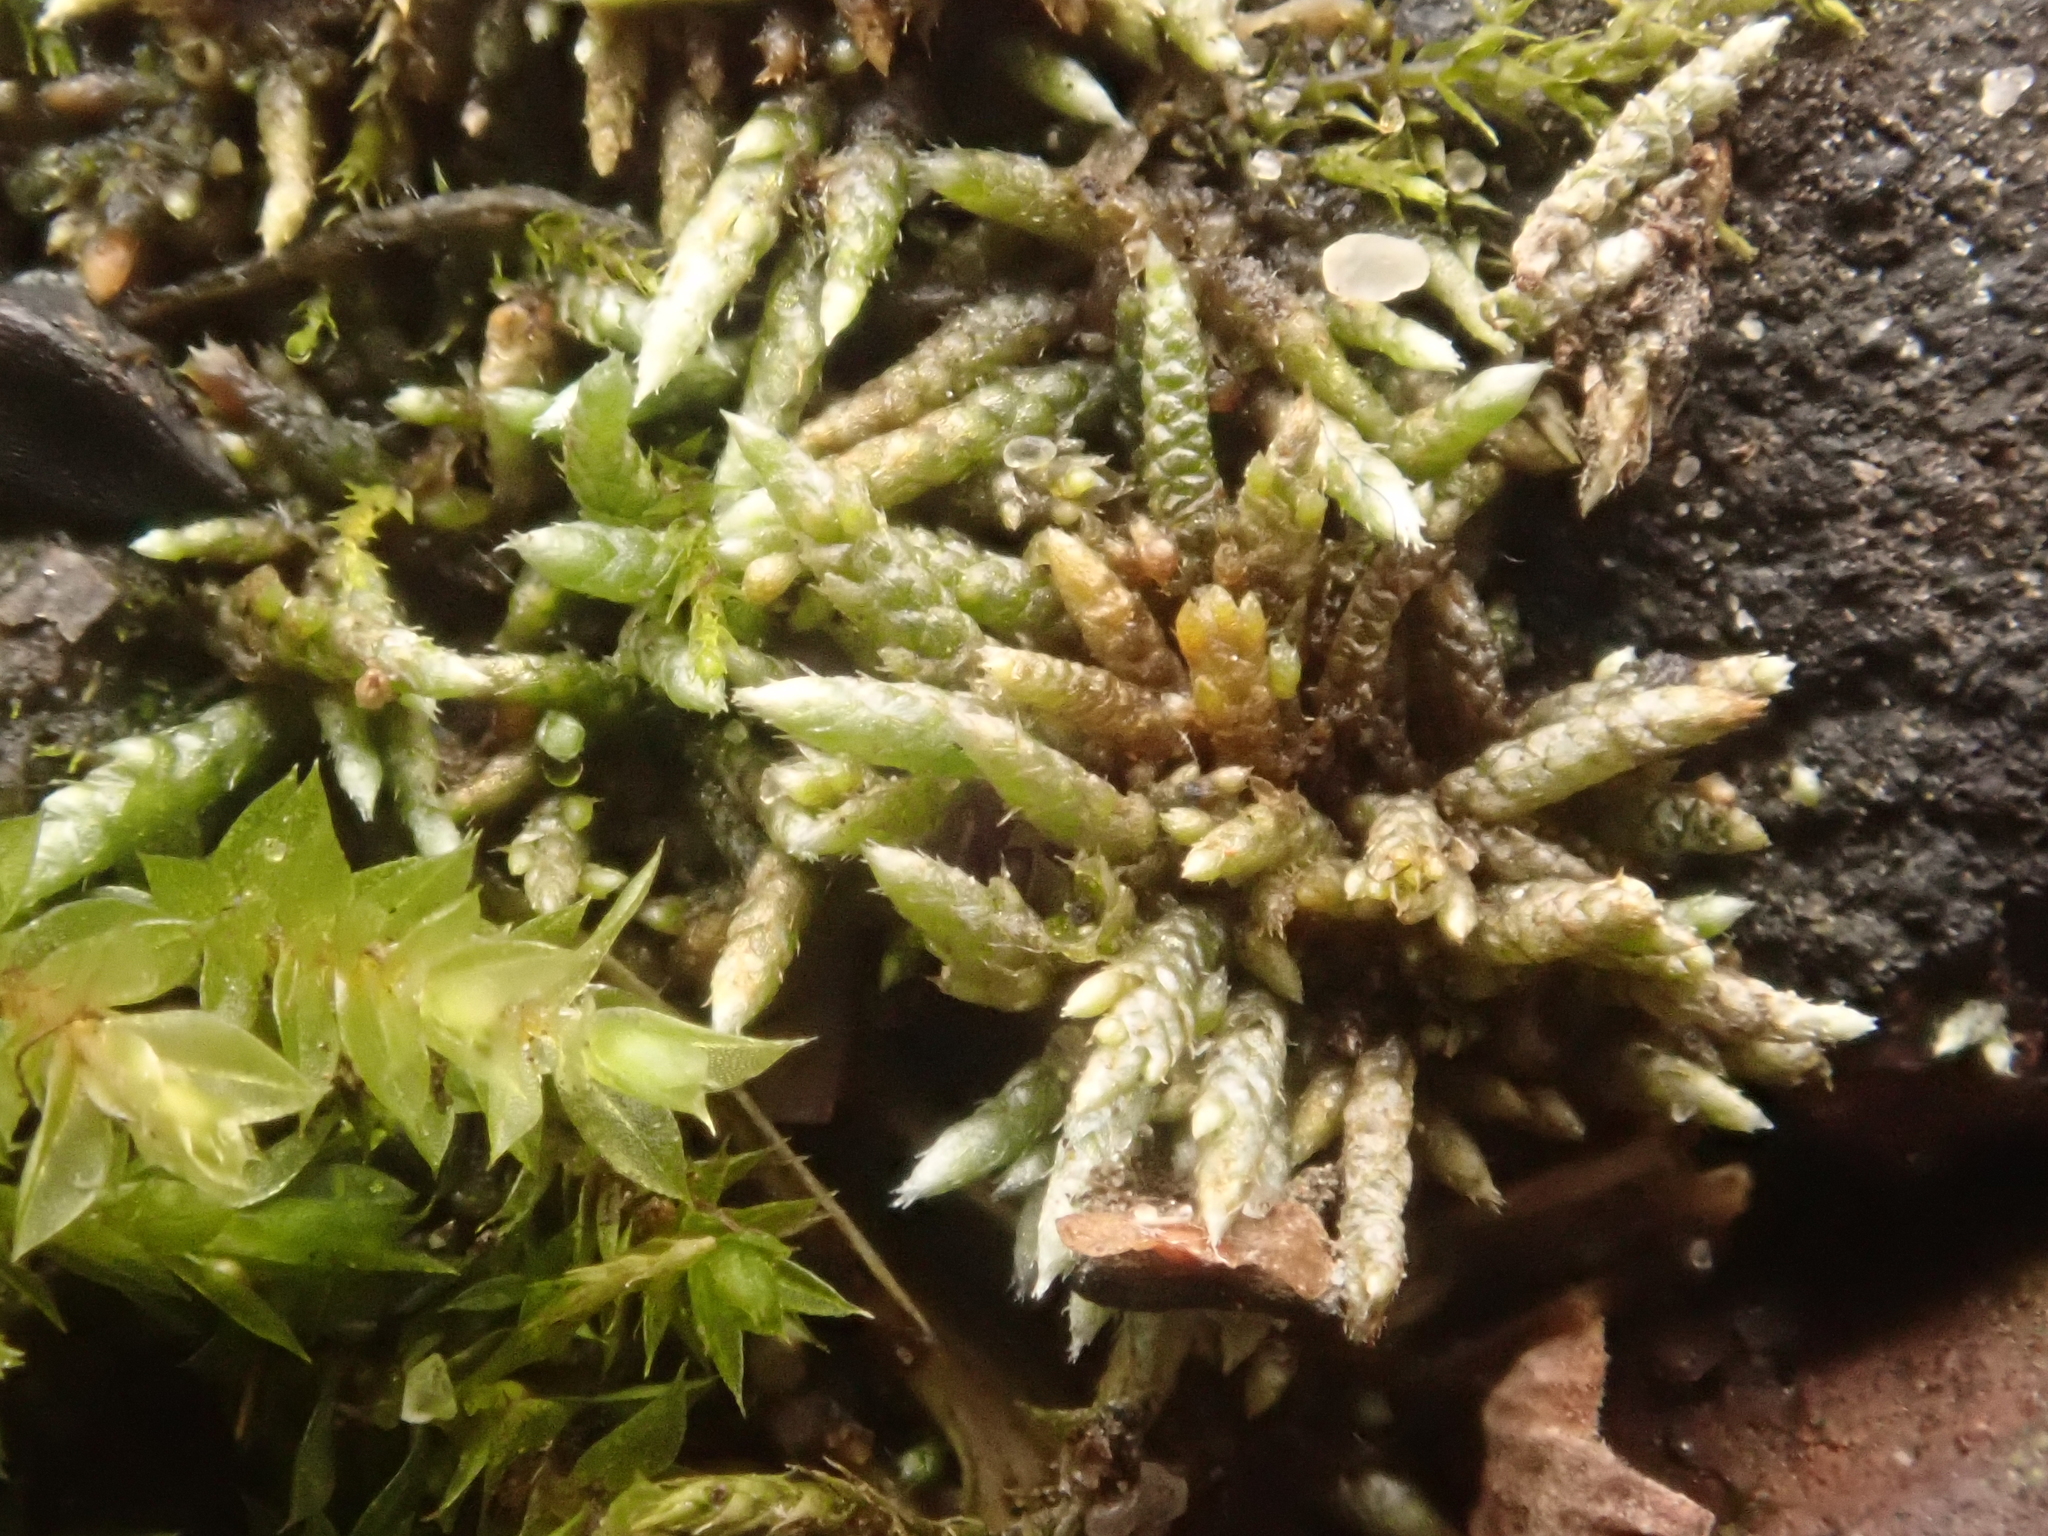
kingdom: Plantae
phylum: Bryophyta
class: Bryopsida
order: Bryales
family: Bryaceae
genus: Bryum
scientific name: Bryum argenteum
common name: Silver-moss
